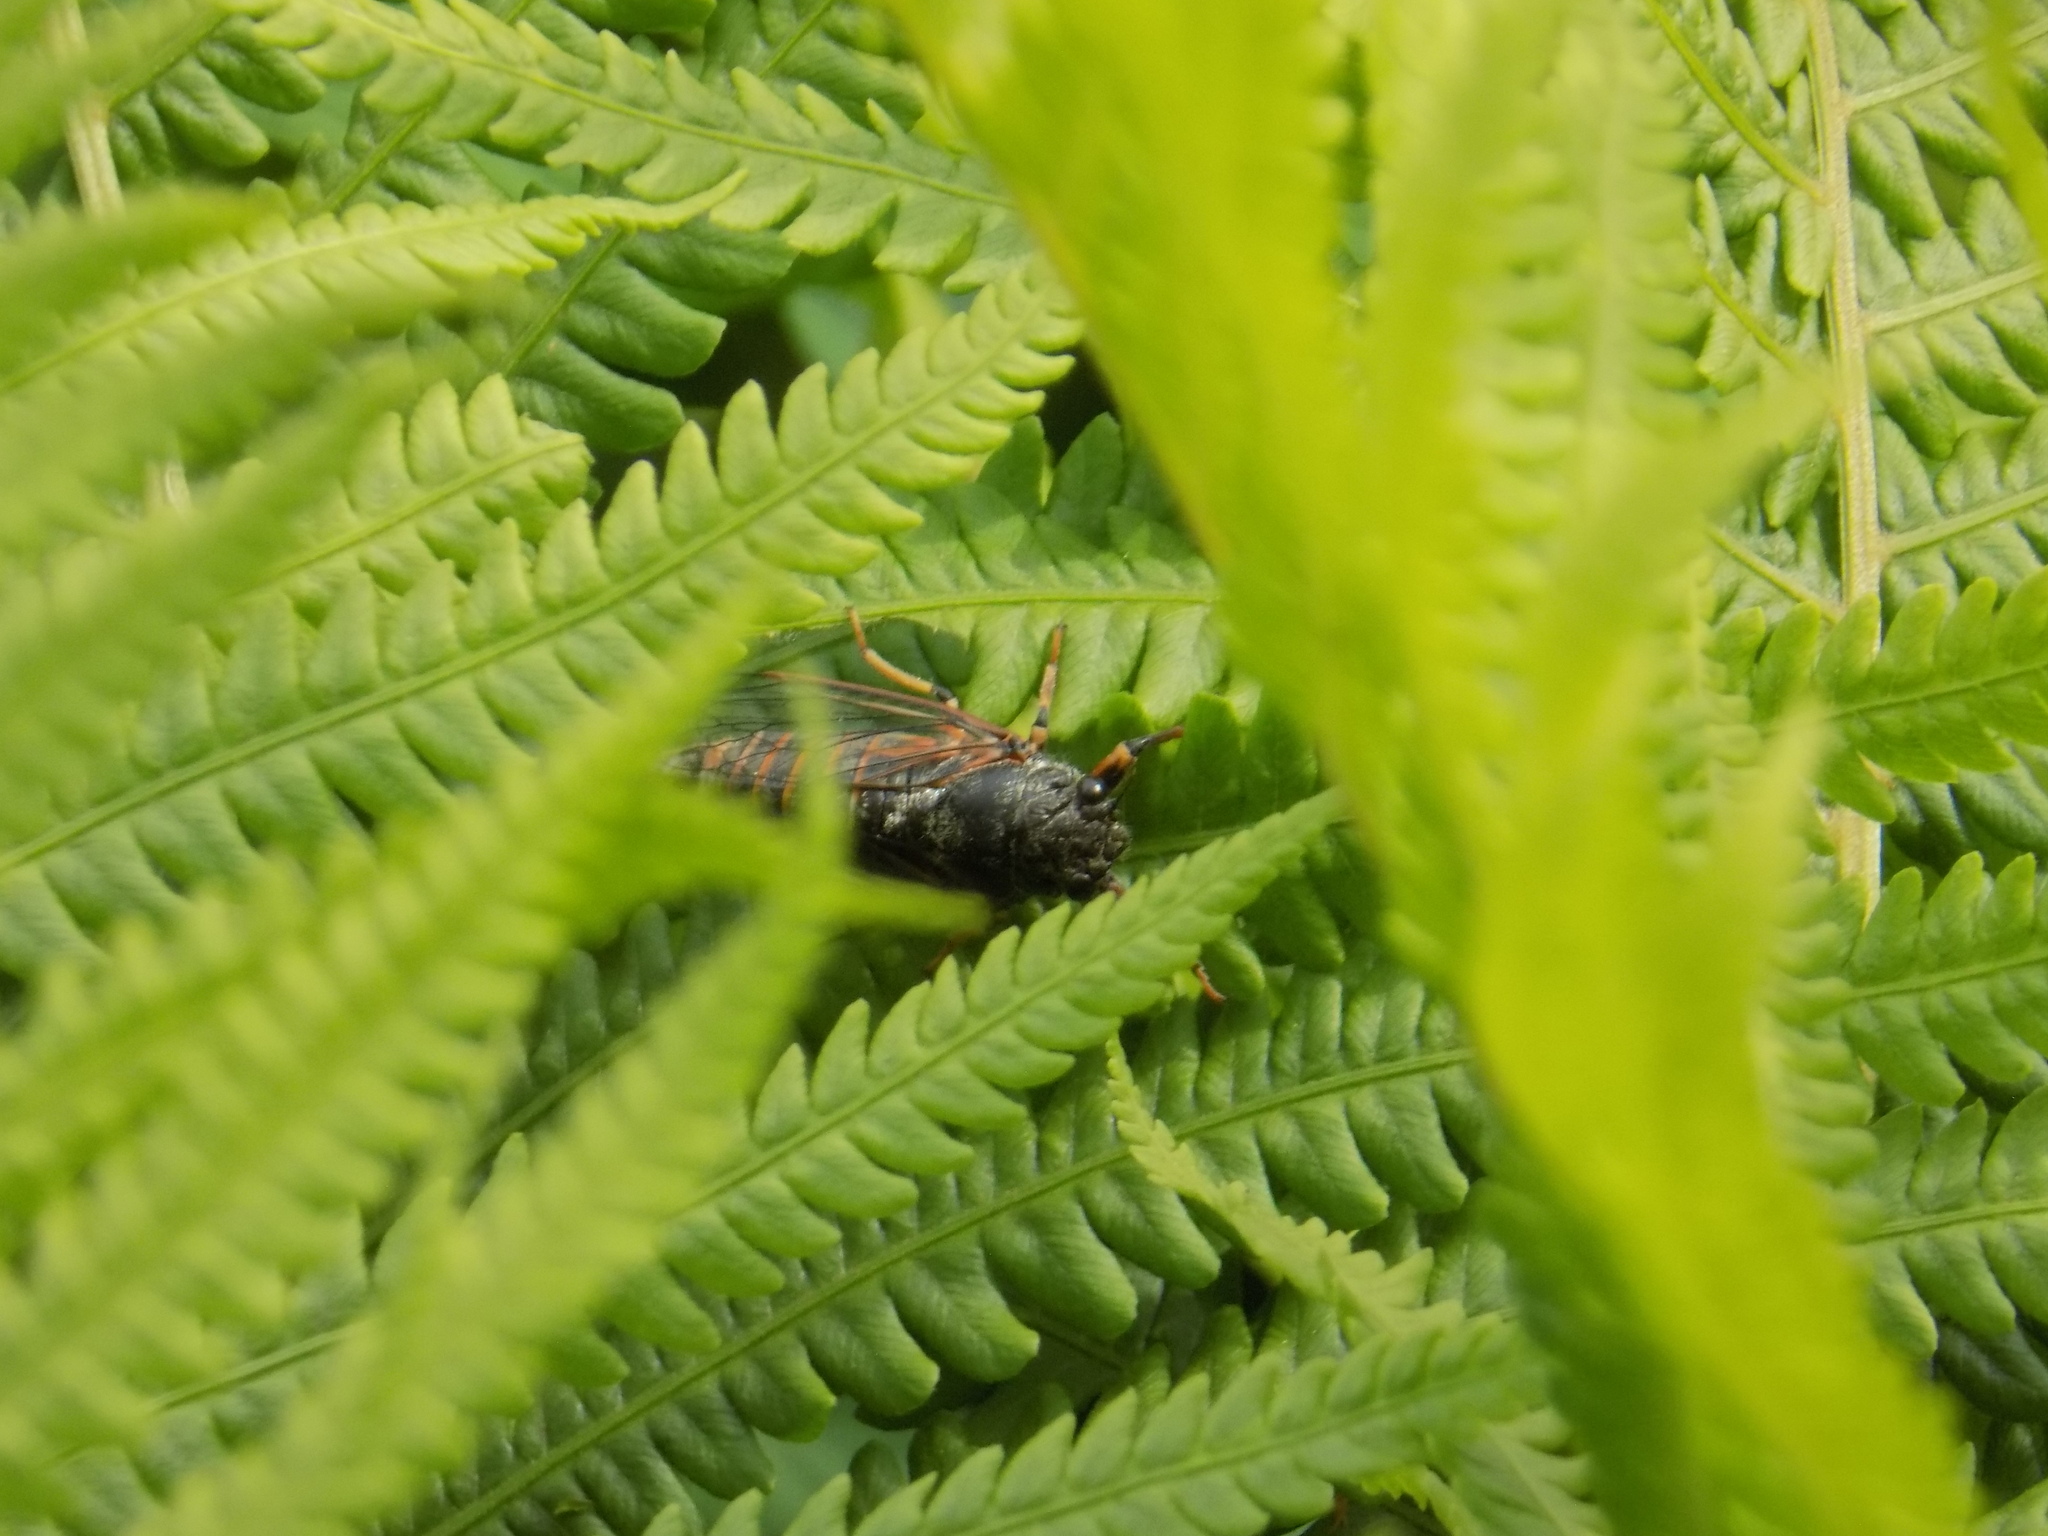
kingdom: Animalia
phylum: Arthropoda
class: Insecta
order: Hemiptera
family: Cicadidae
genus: Cicadetta
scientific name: Cicadetta montana
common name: New forest cicada
